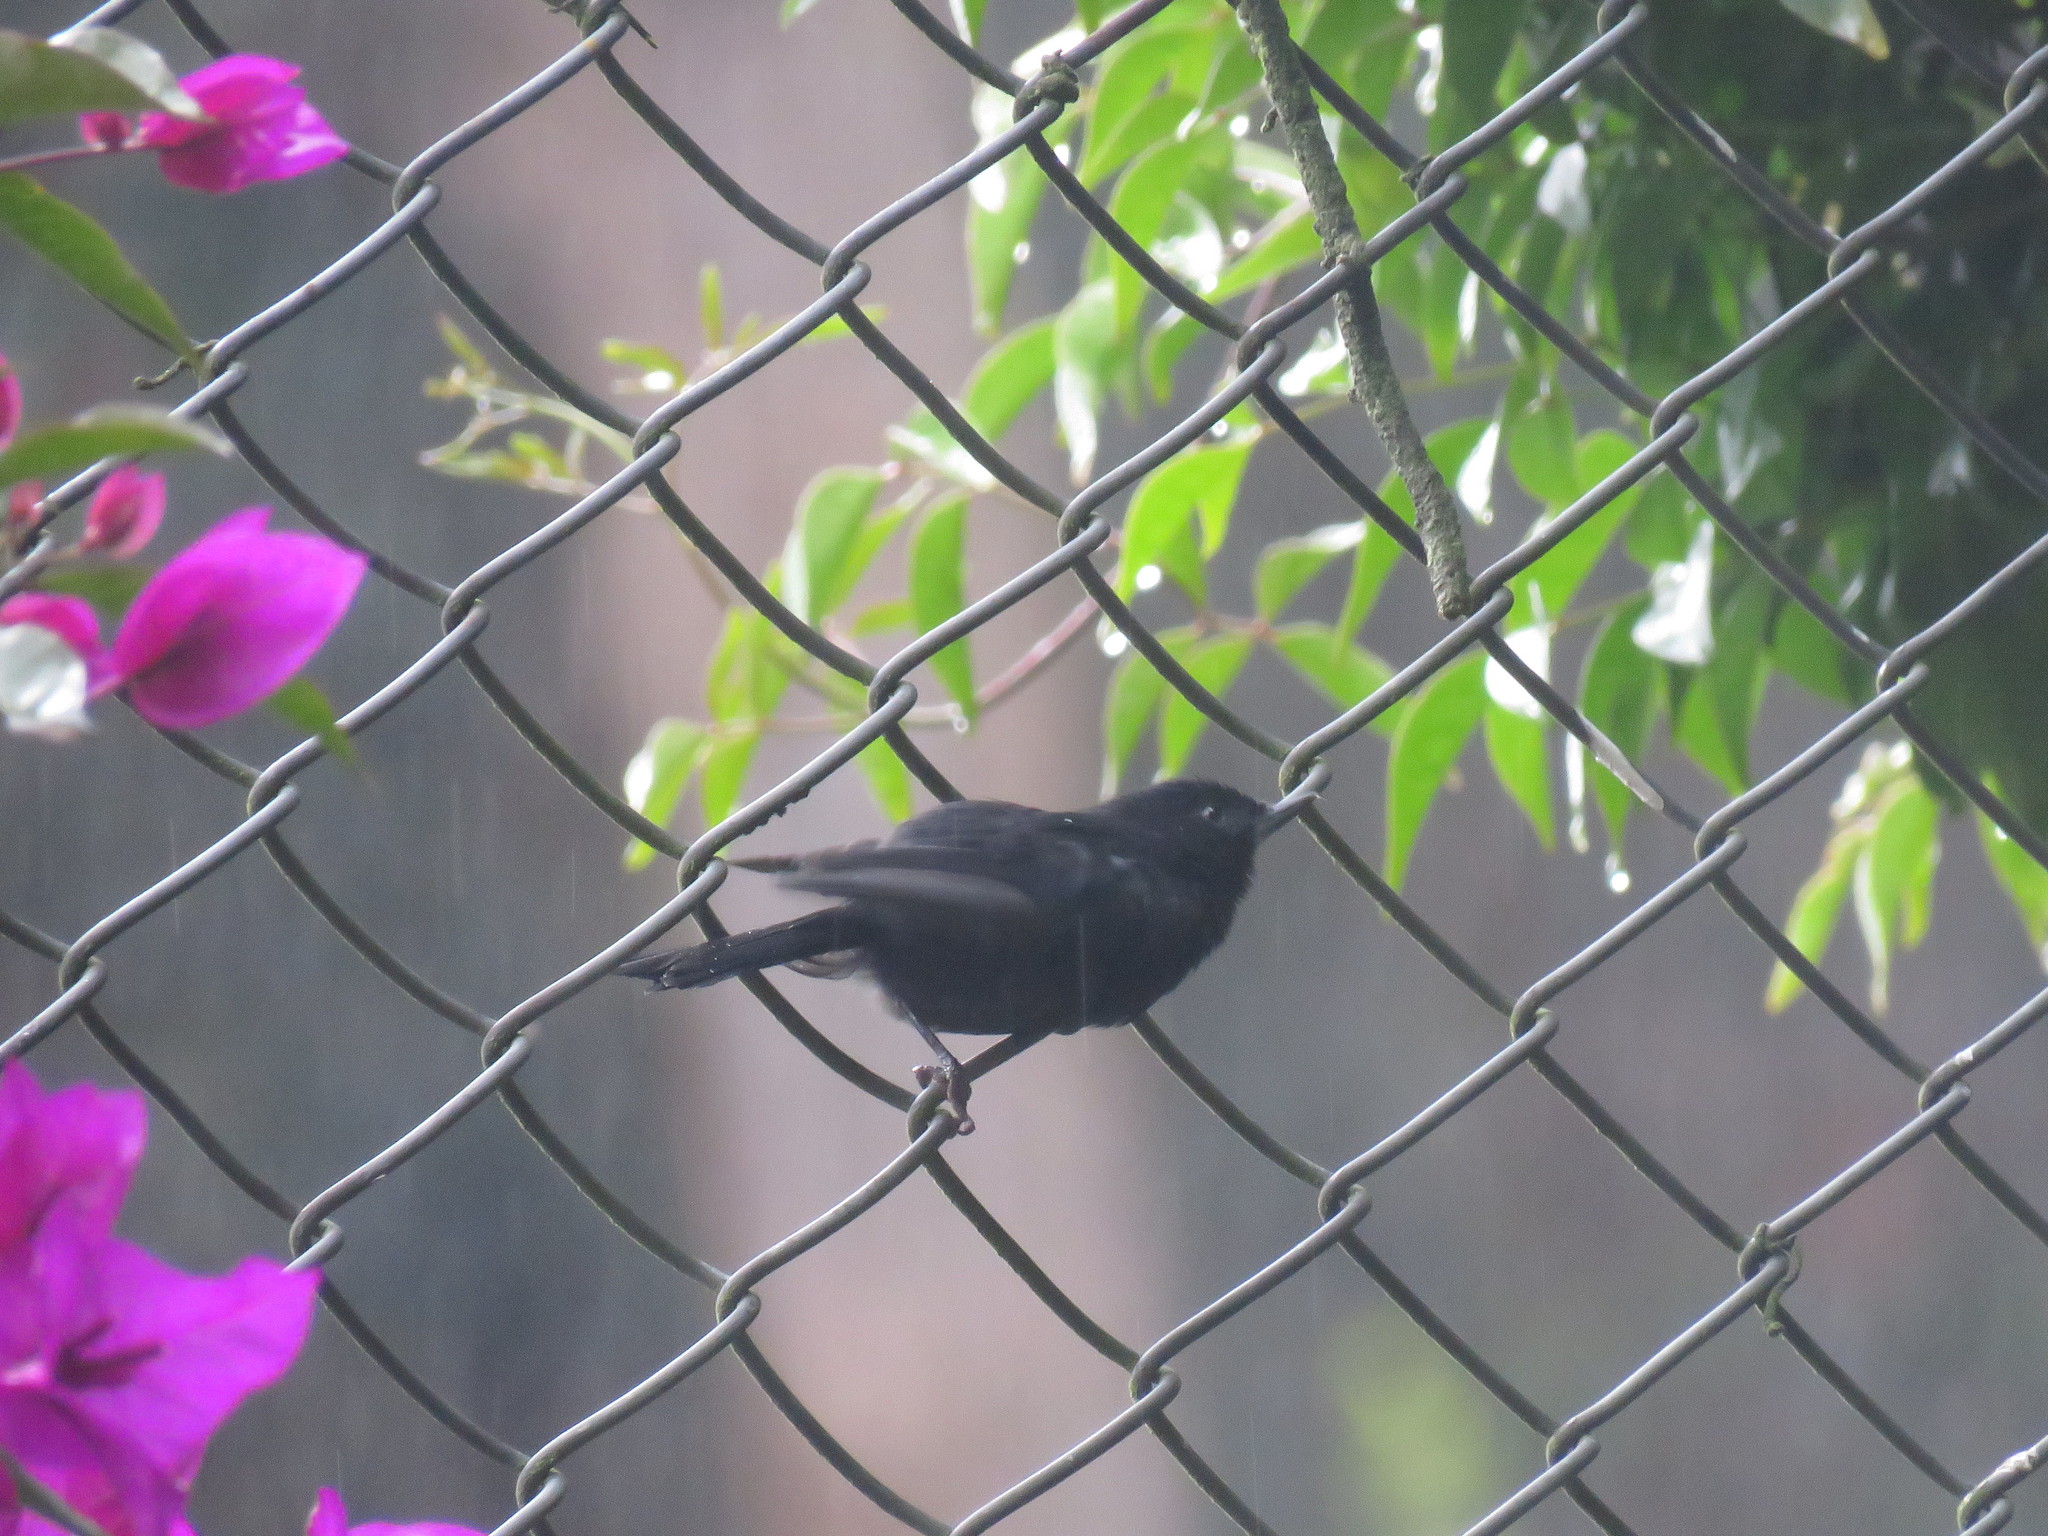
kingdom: Animalia
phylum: Chordata
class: Aves
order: Passeriformes
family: Thraupidae
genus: Diglossa
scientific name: Diglossa humeralis
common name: Black flowerpiercer
